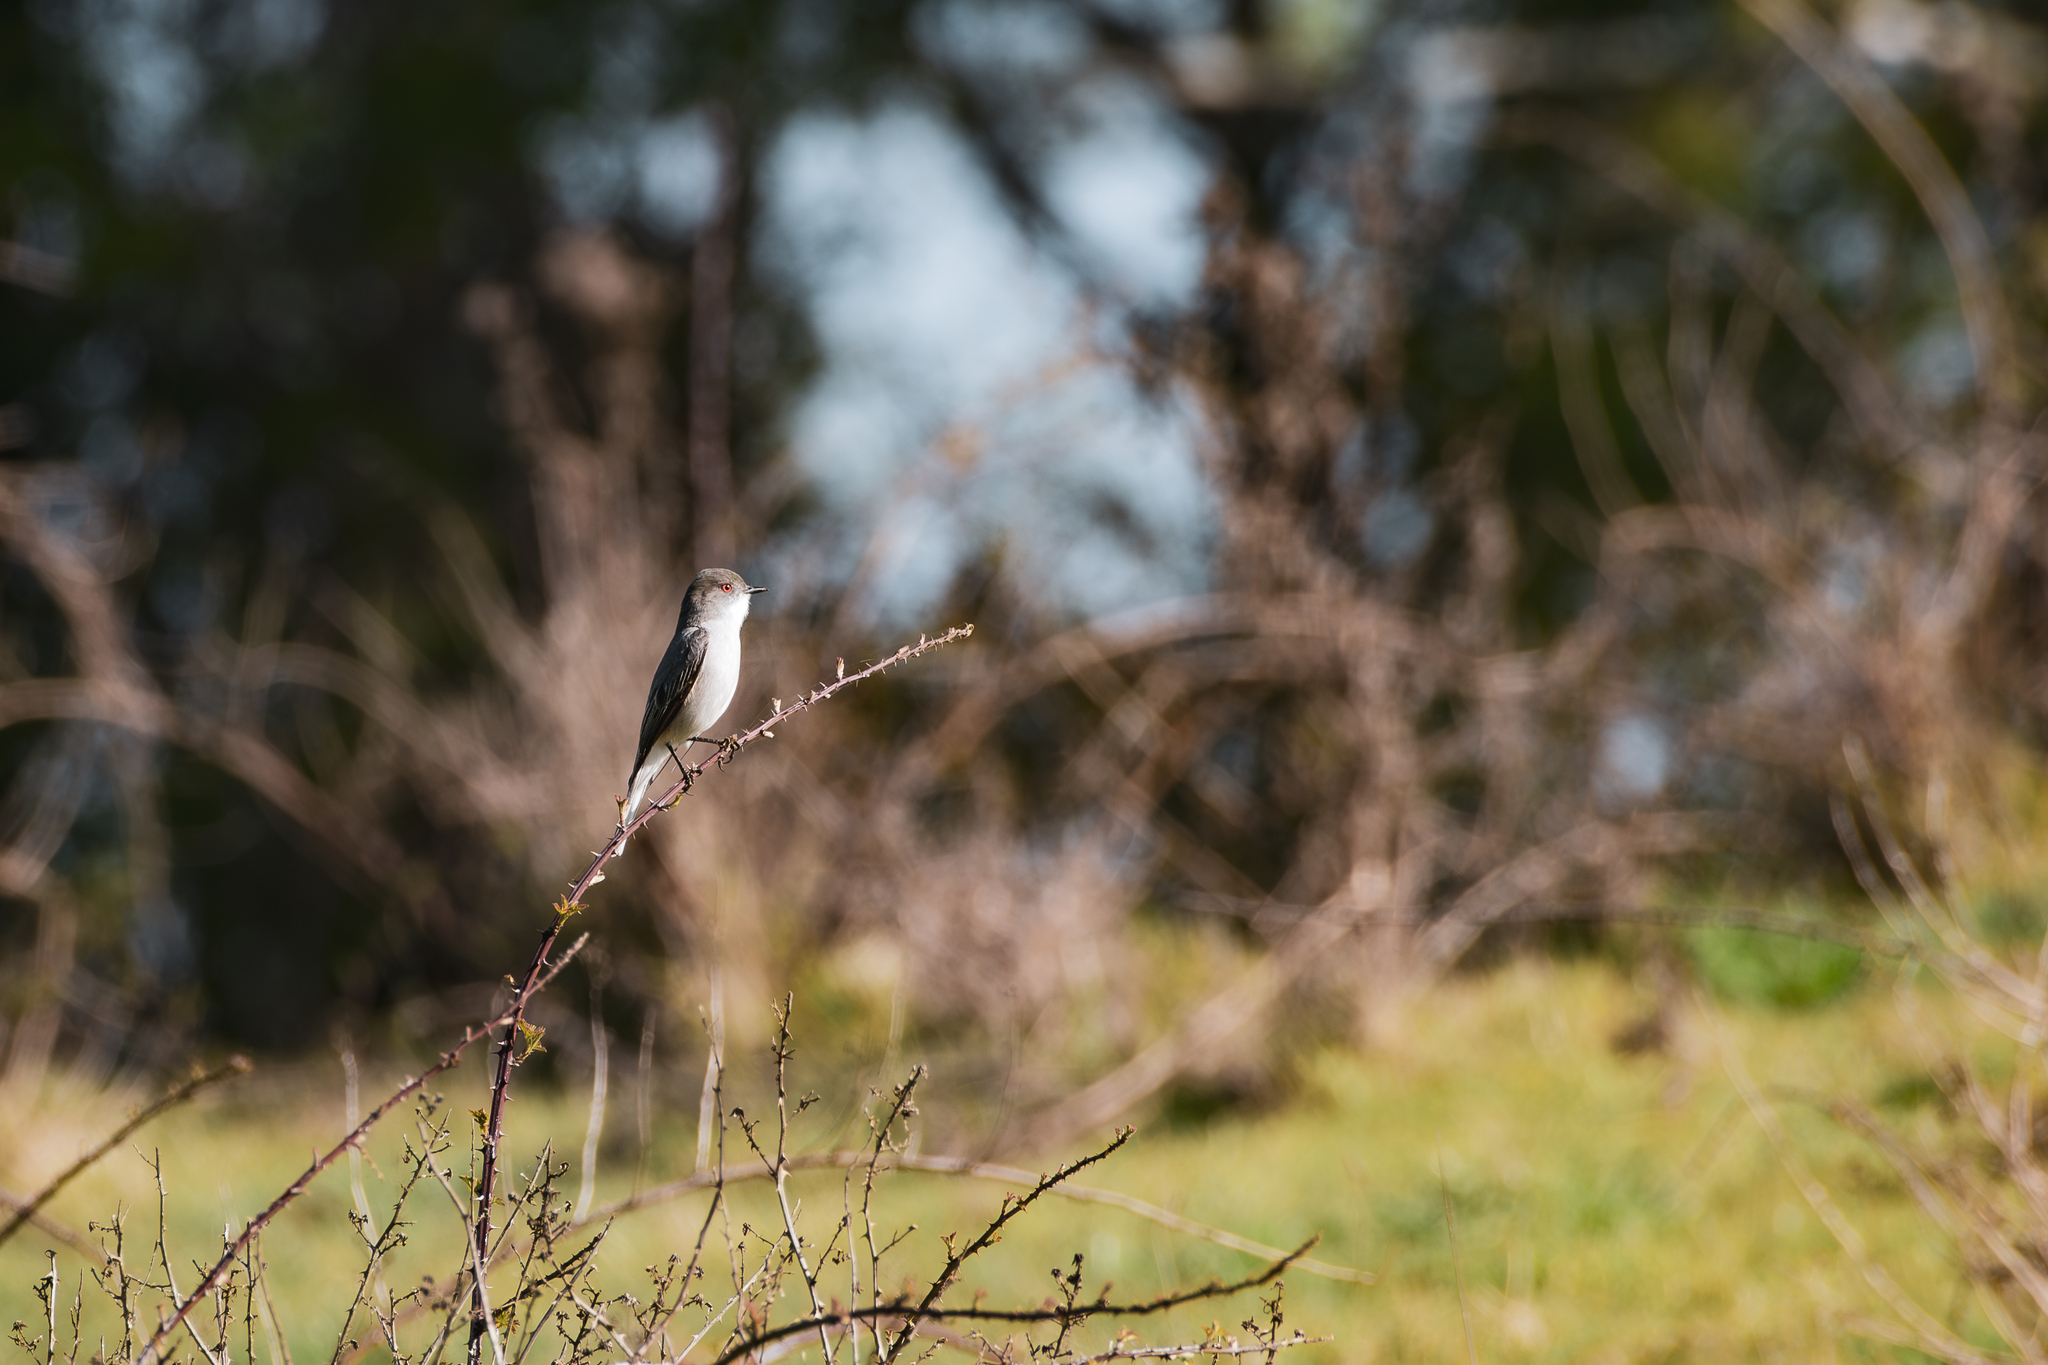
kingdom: Animalia
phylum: Chordata
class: Aves
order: Passeriformes
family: Tyrannidae
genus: Xolmis
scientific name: Xolmis pyrope
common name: Fire-eyed diucon
